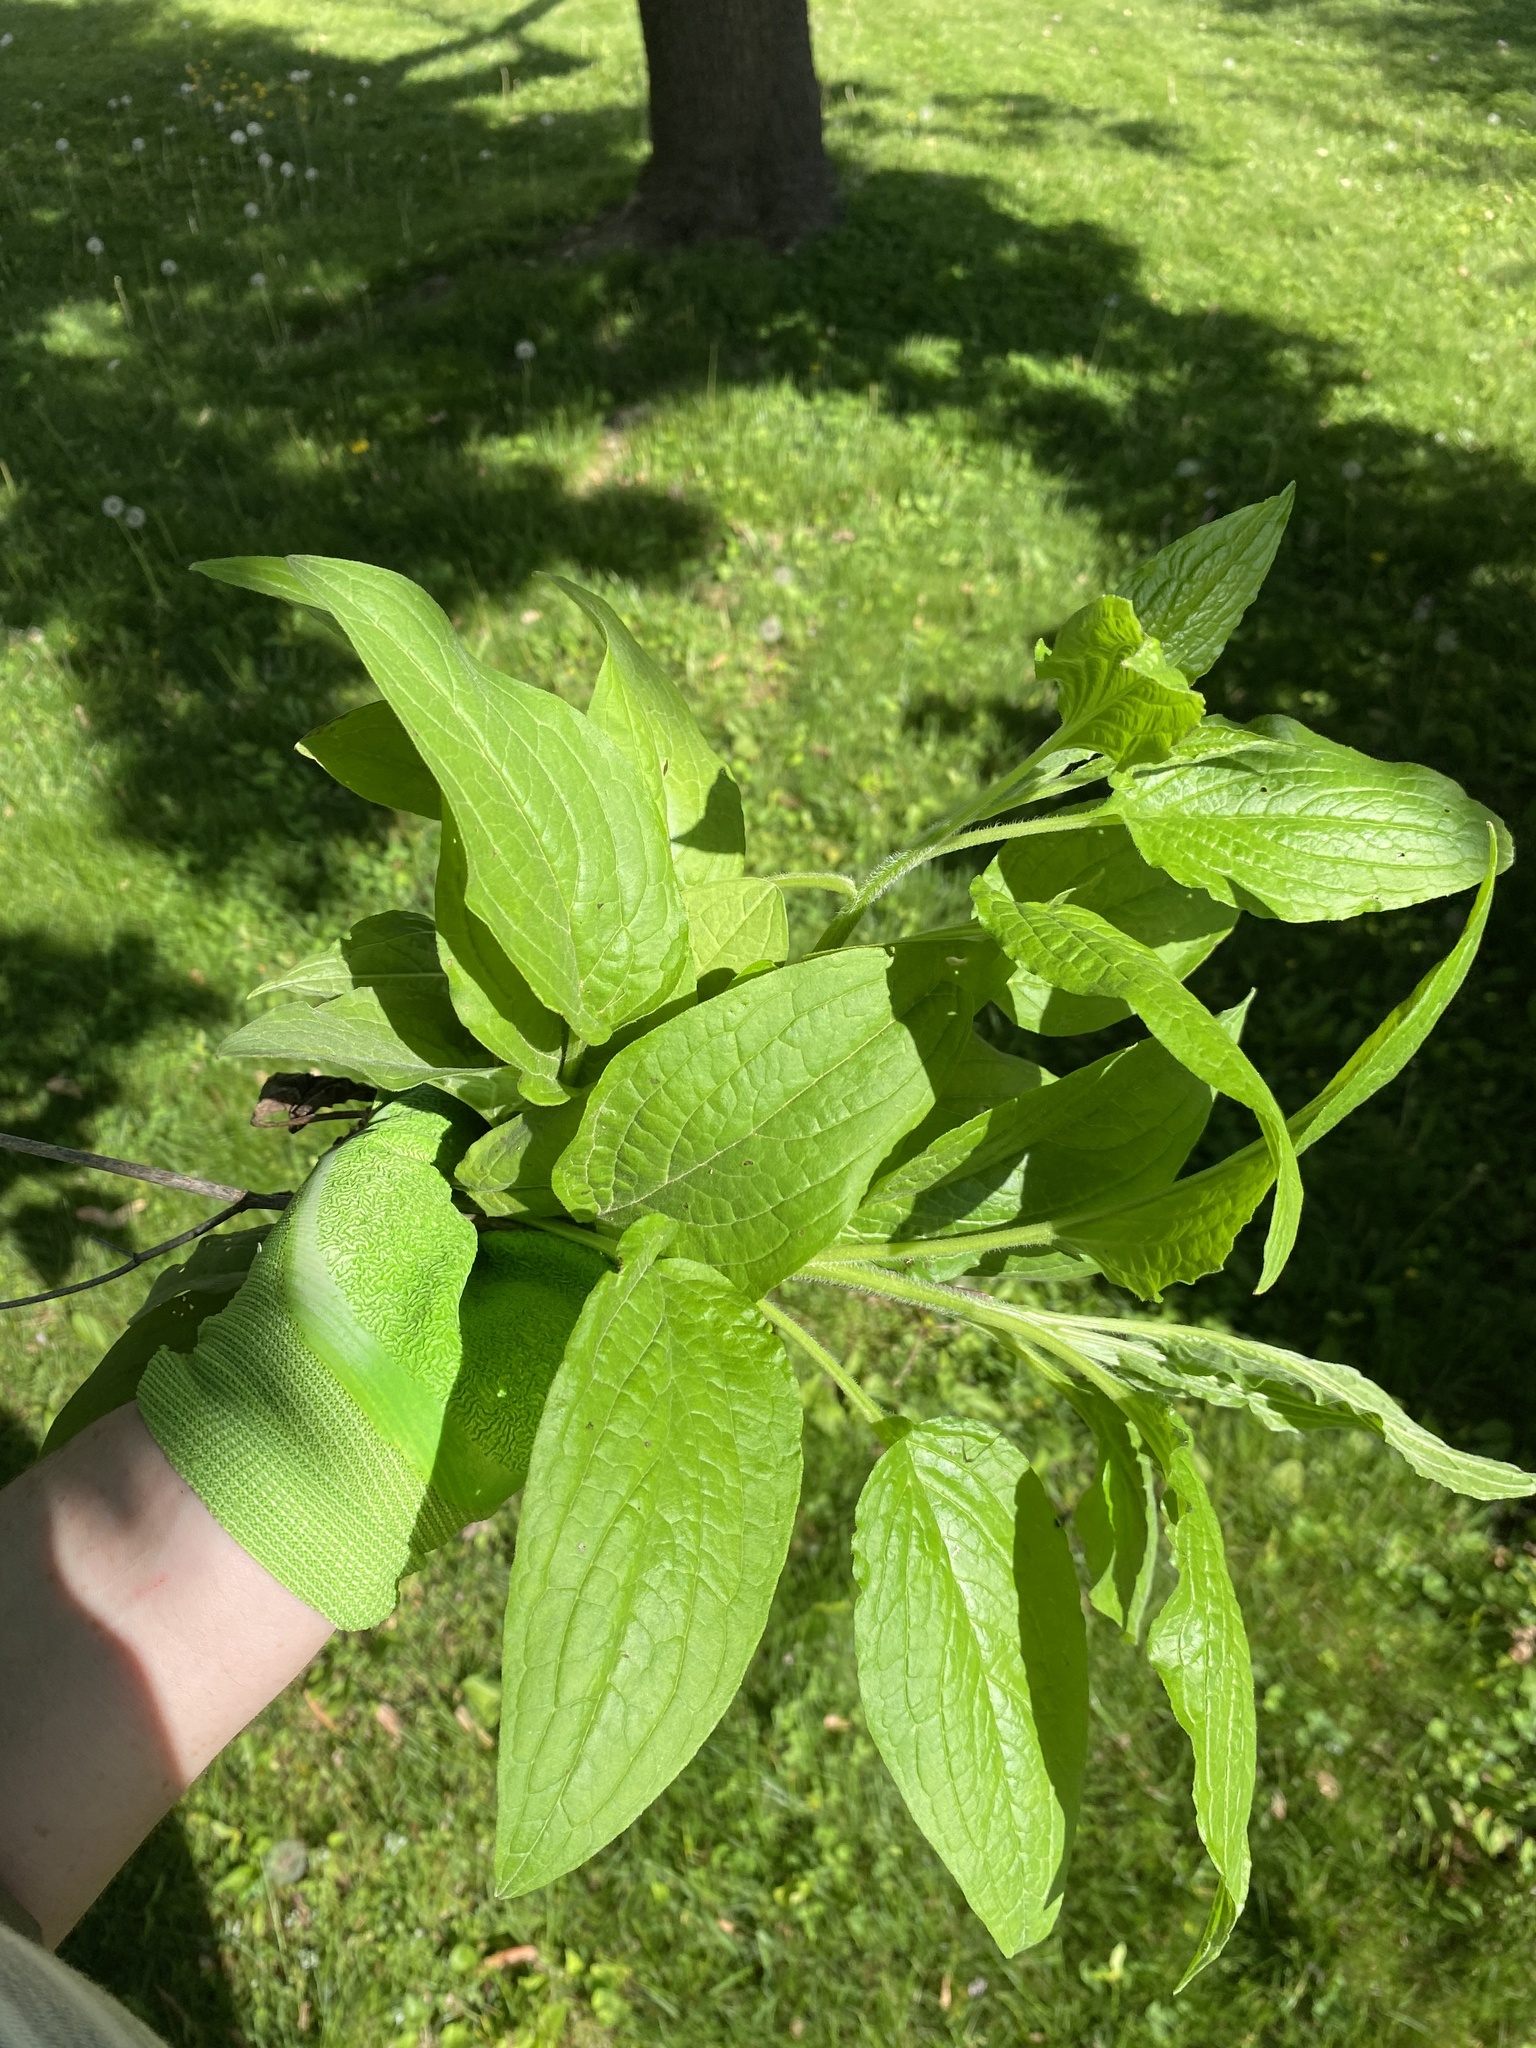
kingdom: Plantae
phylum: Tracheophyta
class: Magnoliopsida
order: Boraginales
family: Boraginaceae
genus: Hackelia
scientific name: Hackelia virginiana
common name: Beggar's-lice
